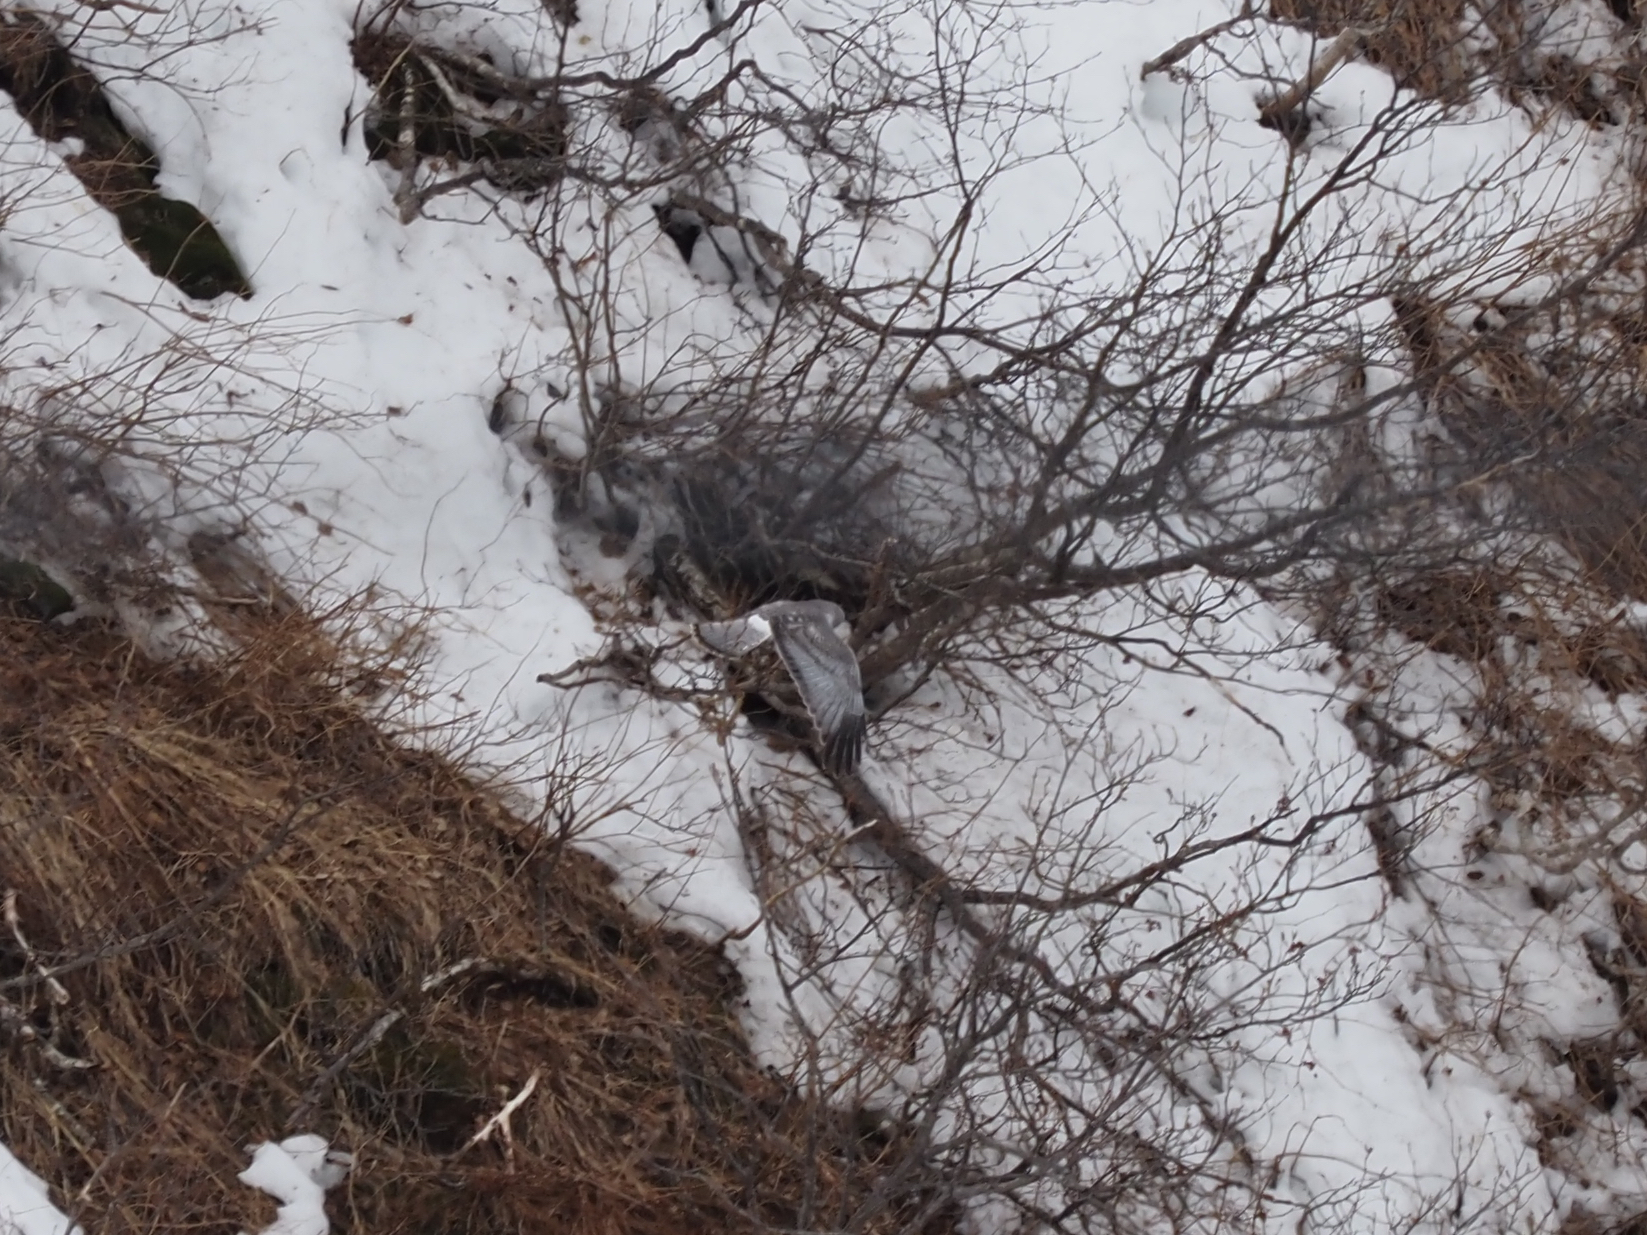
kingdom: Animalia
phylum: Chordata
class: Aves
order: Accipitriformes
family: Accipitridae
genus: Circus
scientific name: Circus cyaneus
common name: Hen harrier
